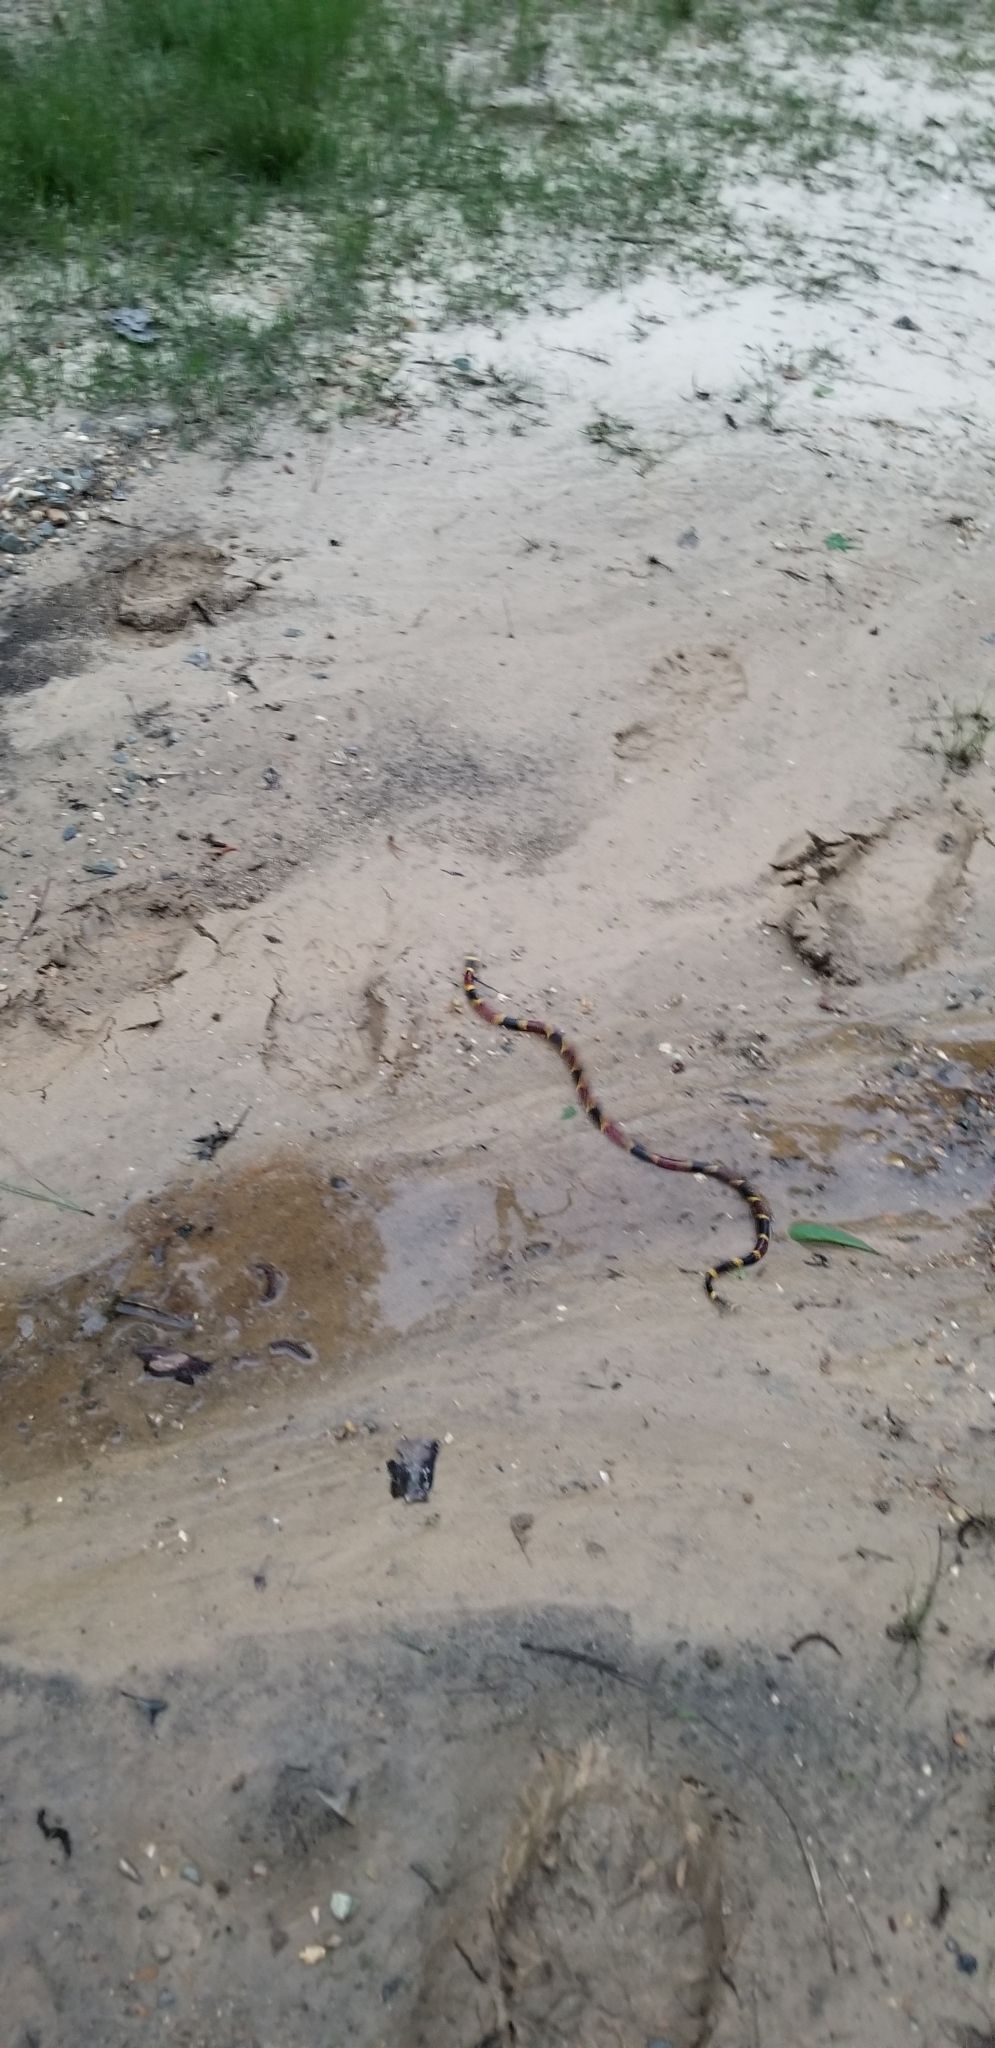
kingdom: Animalia
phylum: Chordata
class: Squamata
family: Elapidae
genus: Micrurus
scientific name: Micrurus tener
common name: Texas coral snake
